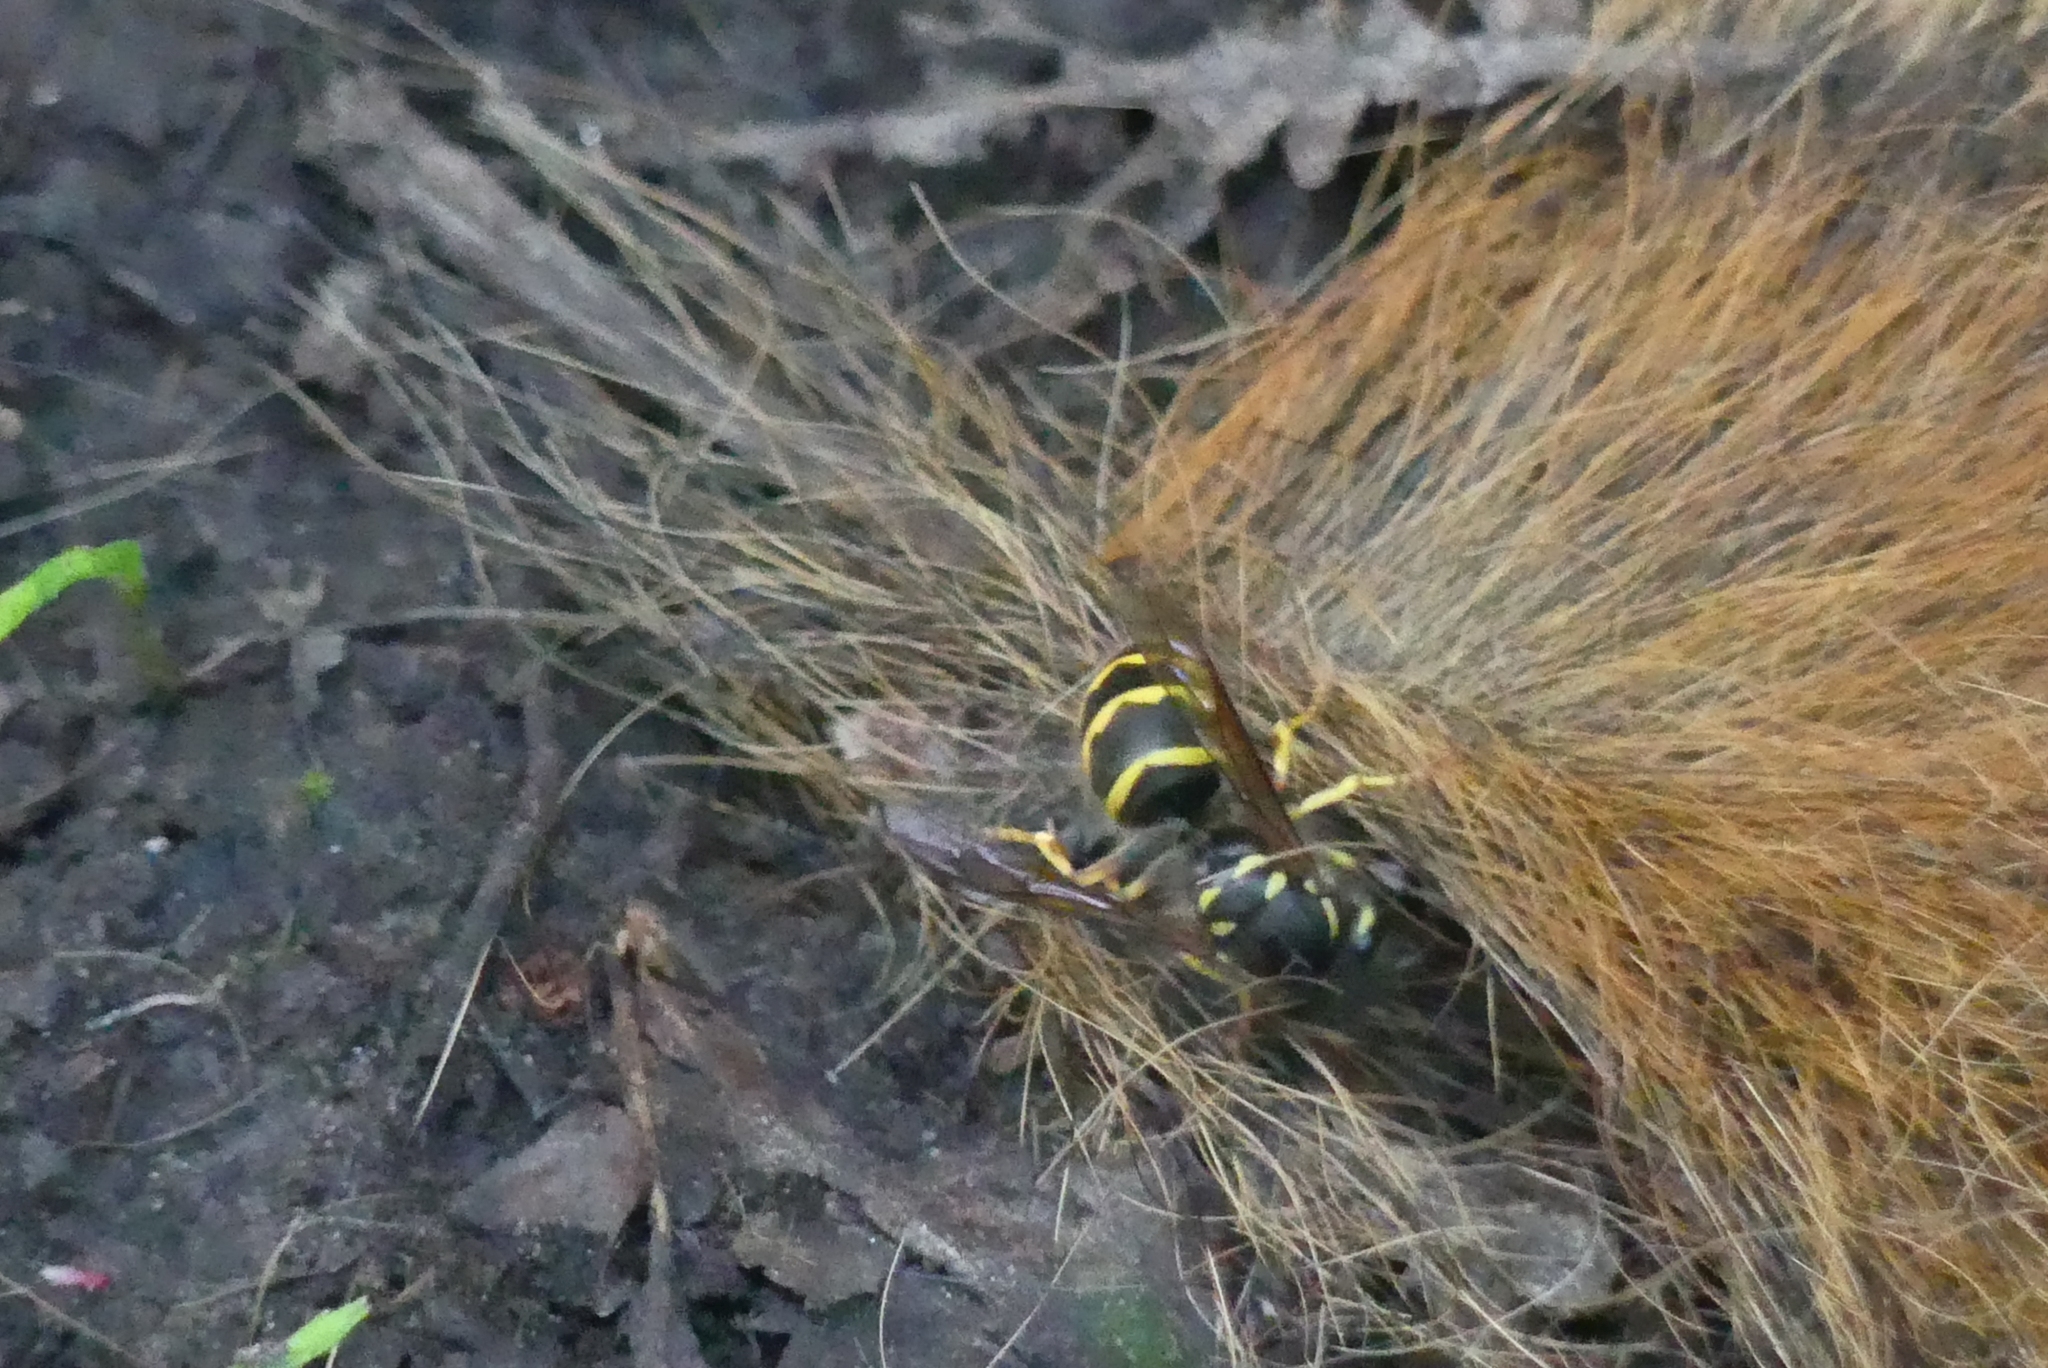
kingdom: Animalia
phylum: Arthropoda
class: Insecta
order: Hymenoptera
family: Vespidae
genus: Vespula
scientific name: Vespula alascensis
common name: Alaska yellowjacket
